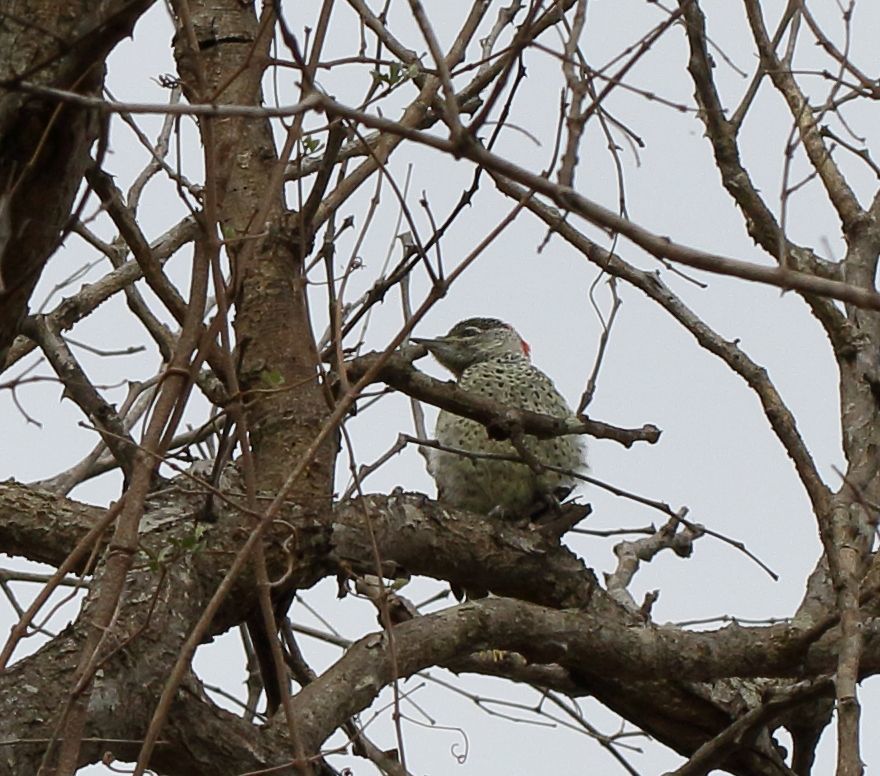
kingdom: Animalia
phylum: Chordata
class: Aves
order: Piciformes
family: Picidae
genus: Campethera
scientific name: Campethera abingoni
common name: Golden-tailed woodpecker
